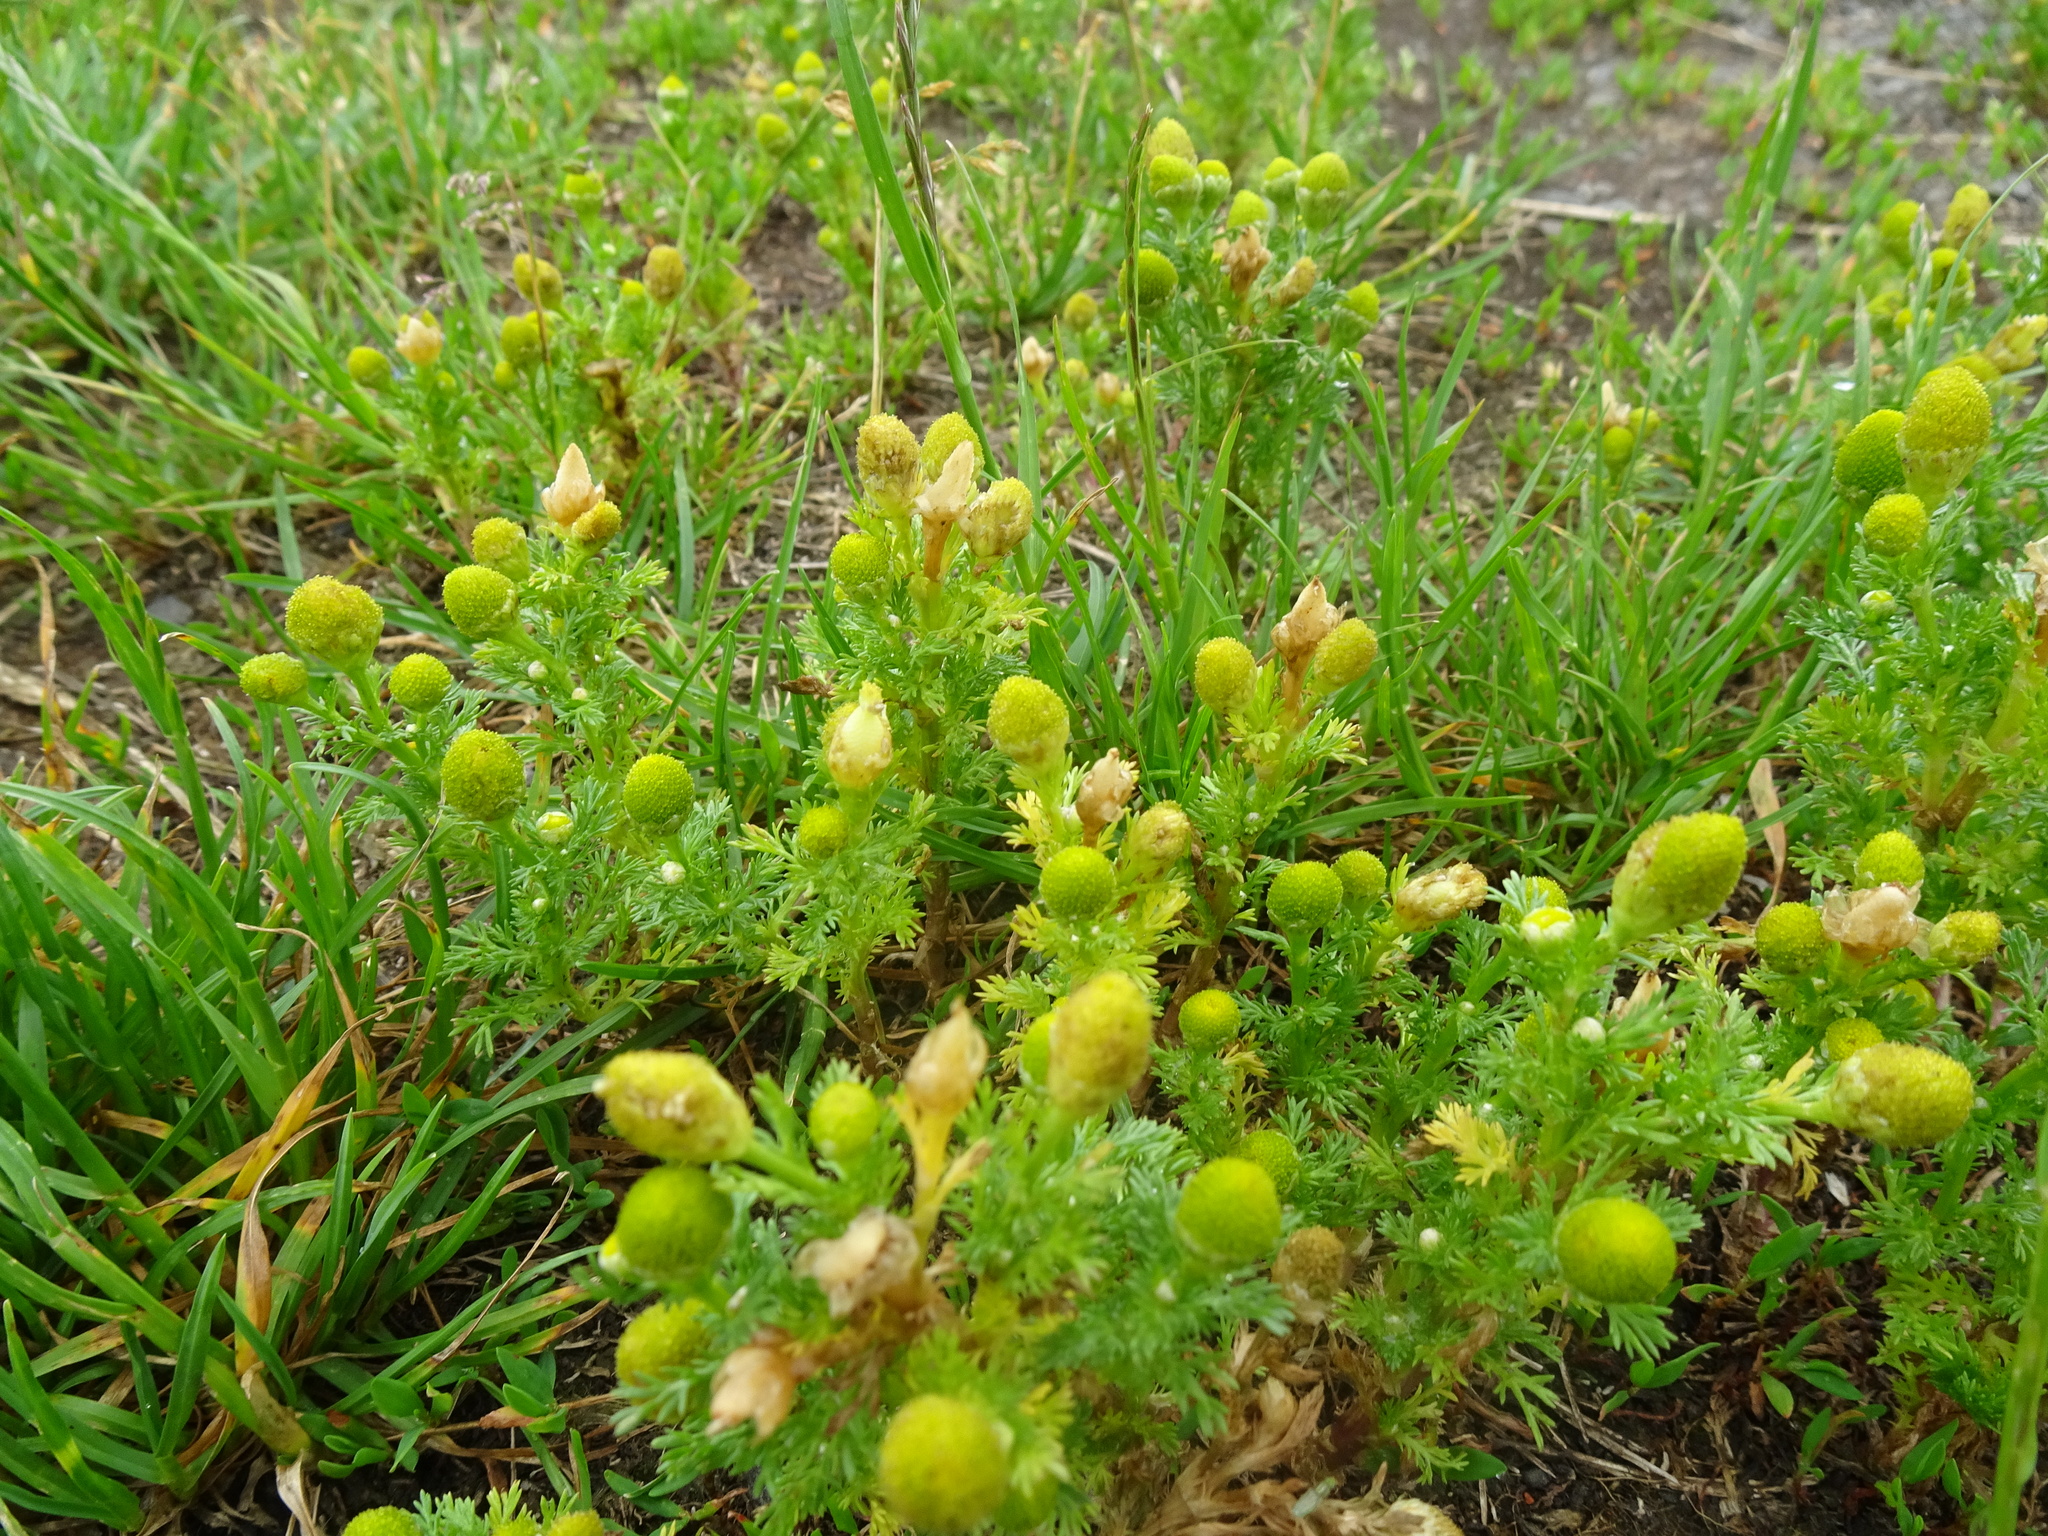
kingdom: Plantae
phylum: Tracheophyta
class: Magnoliopsida
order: Asterales
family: Asteraceae
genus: Matricaria
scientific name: Matricaria discoidea
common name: Disc mayweed
